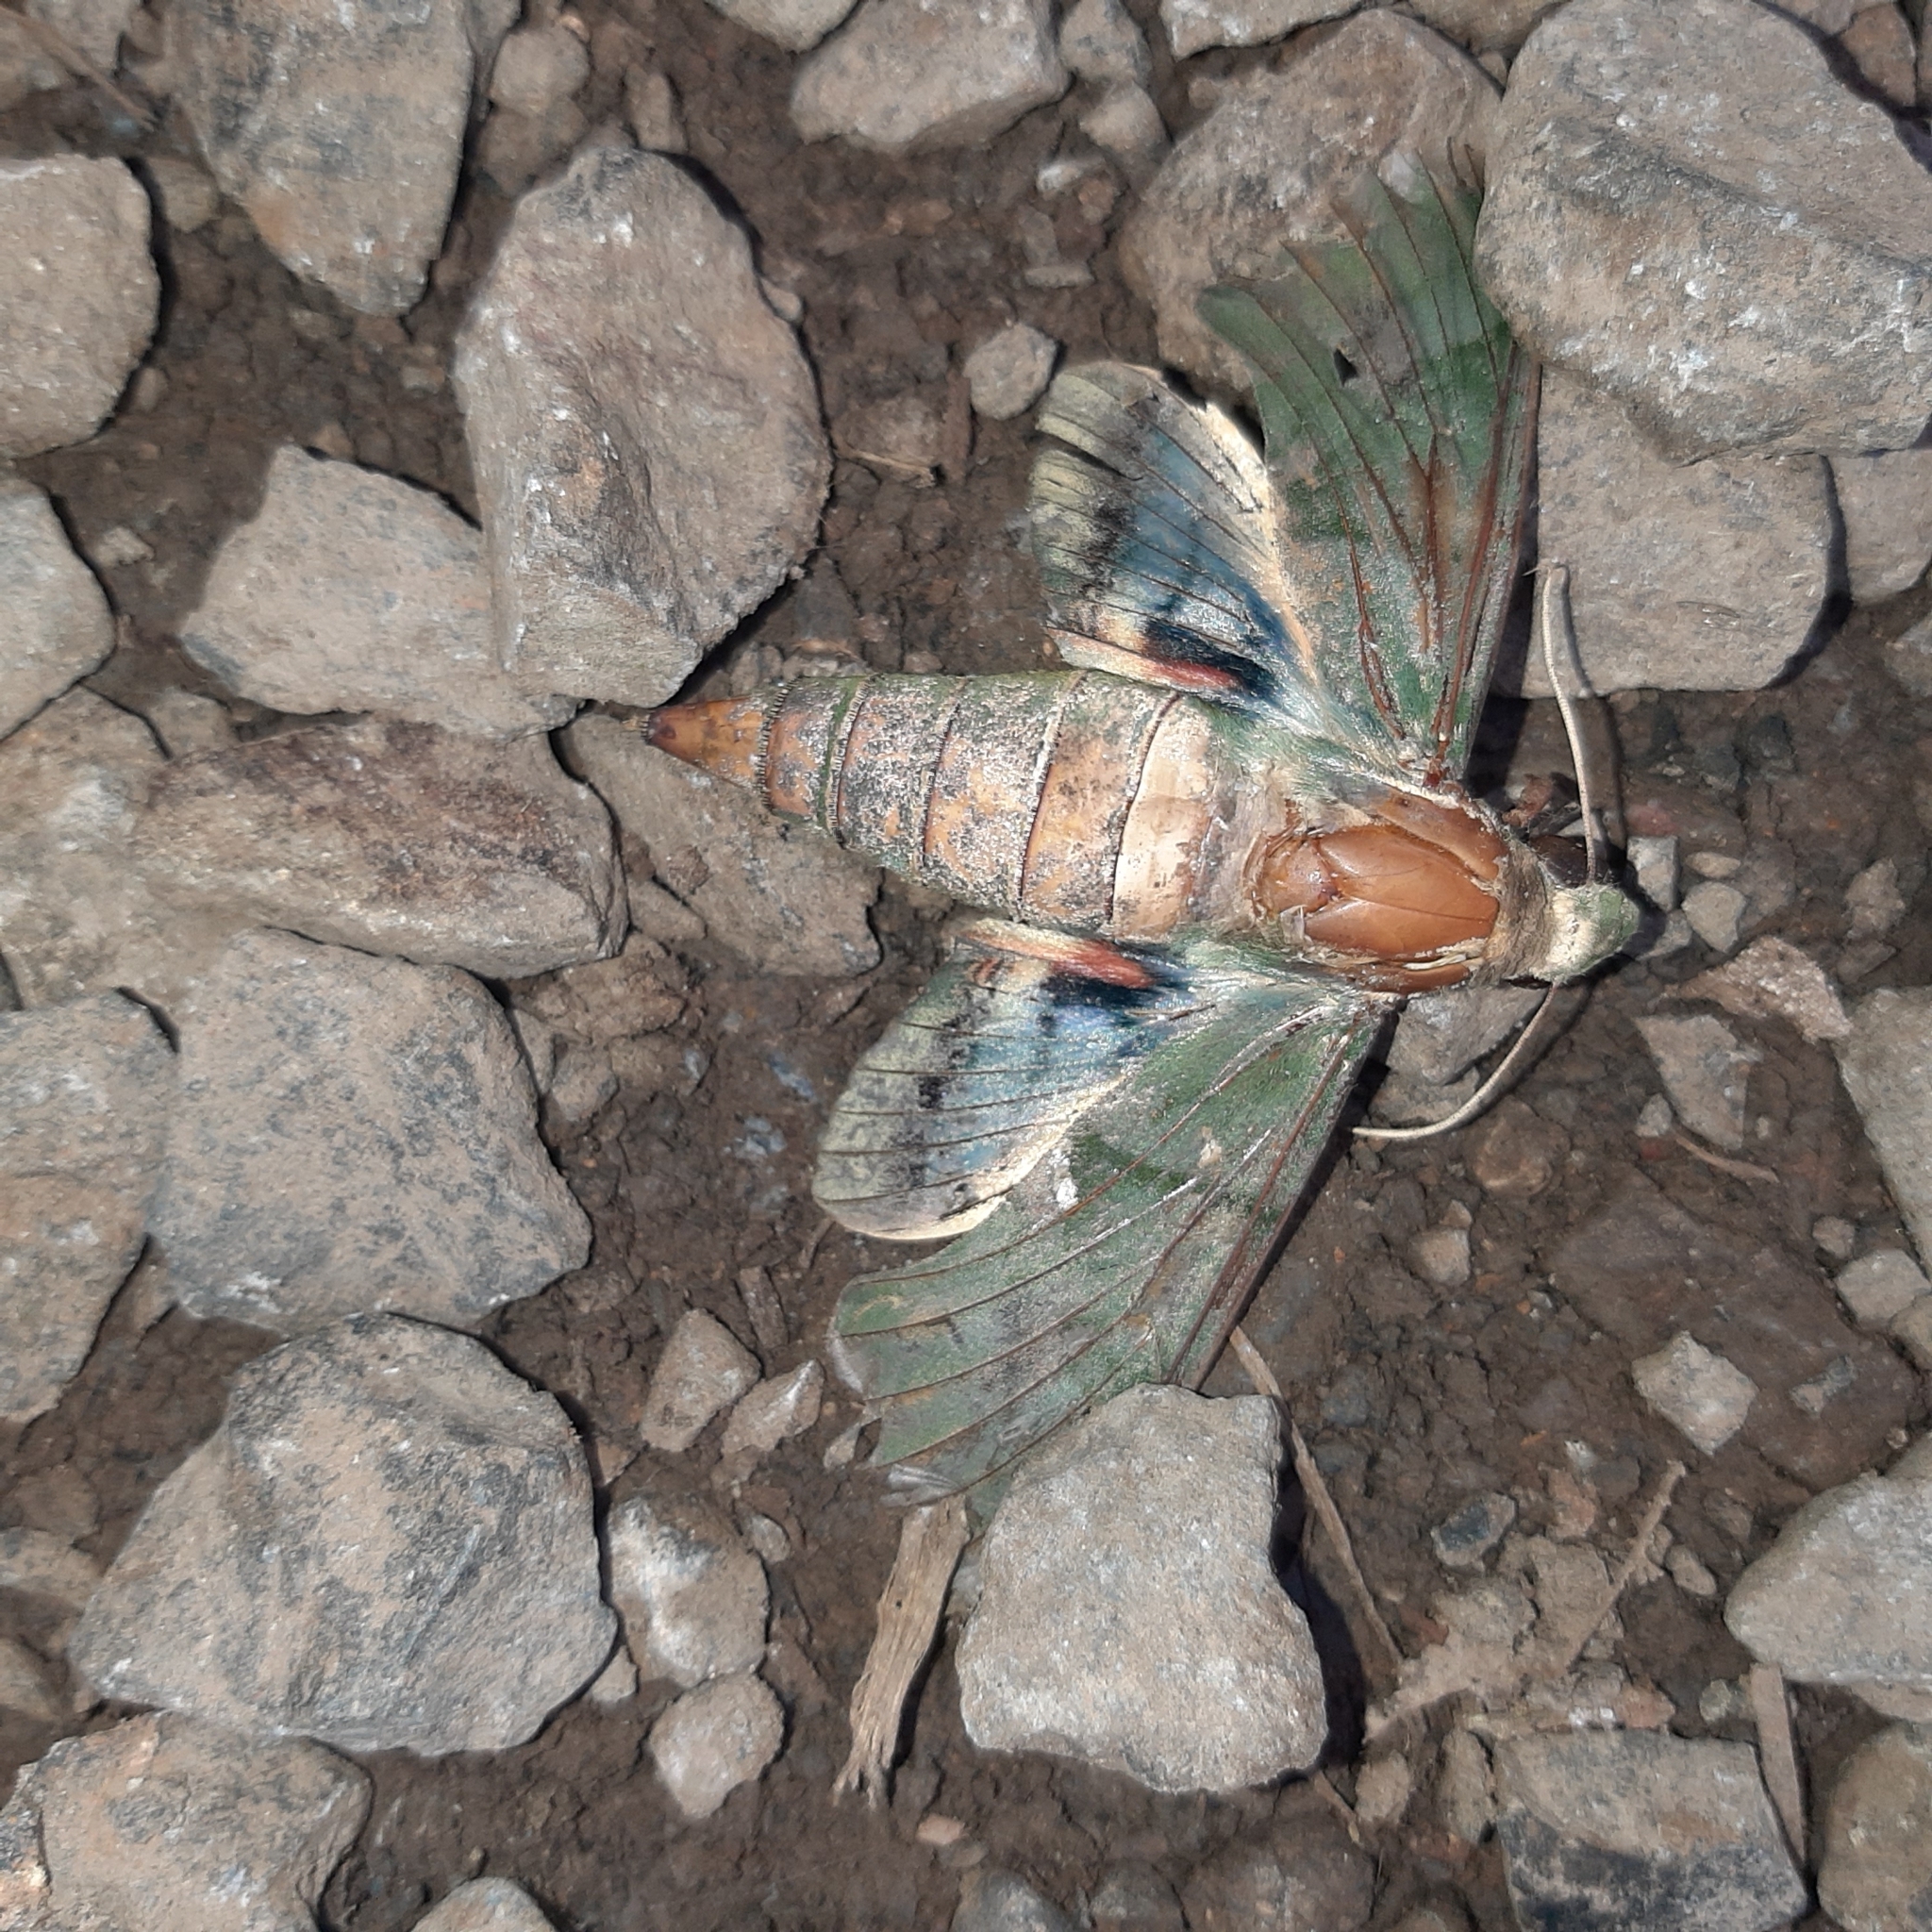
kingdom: Animalia
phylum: Arthropoda
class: Insecta
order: Lepidoptera
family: Sphingidae
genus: Eumorpha
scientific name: Eumorpha labruscae
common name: Gaudy sphinx
